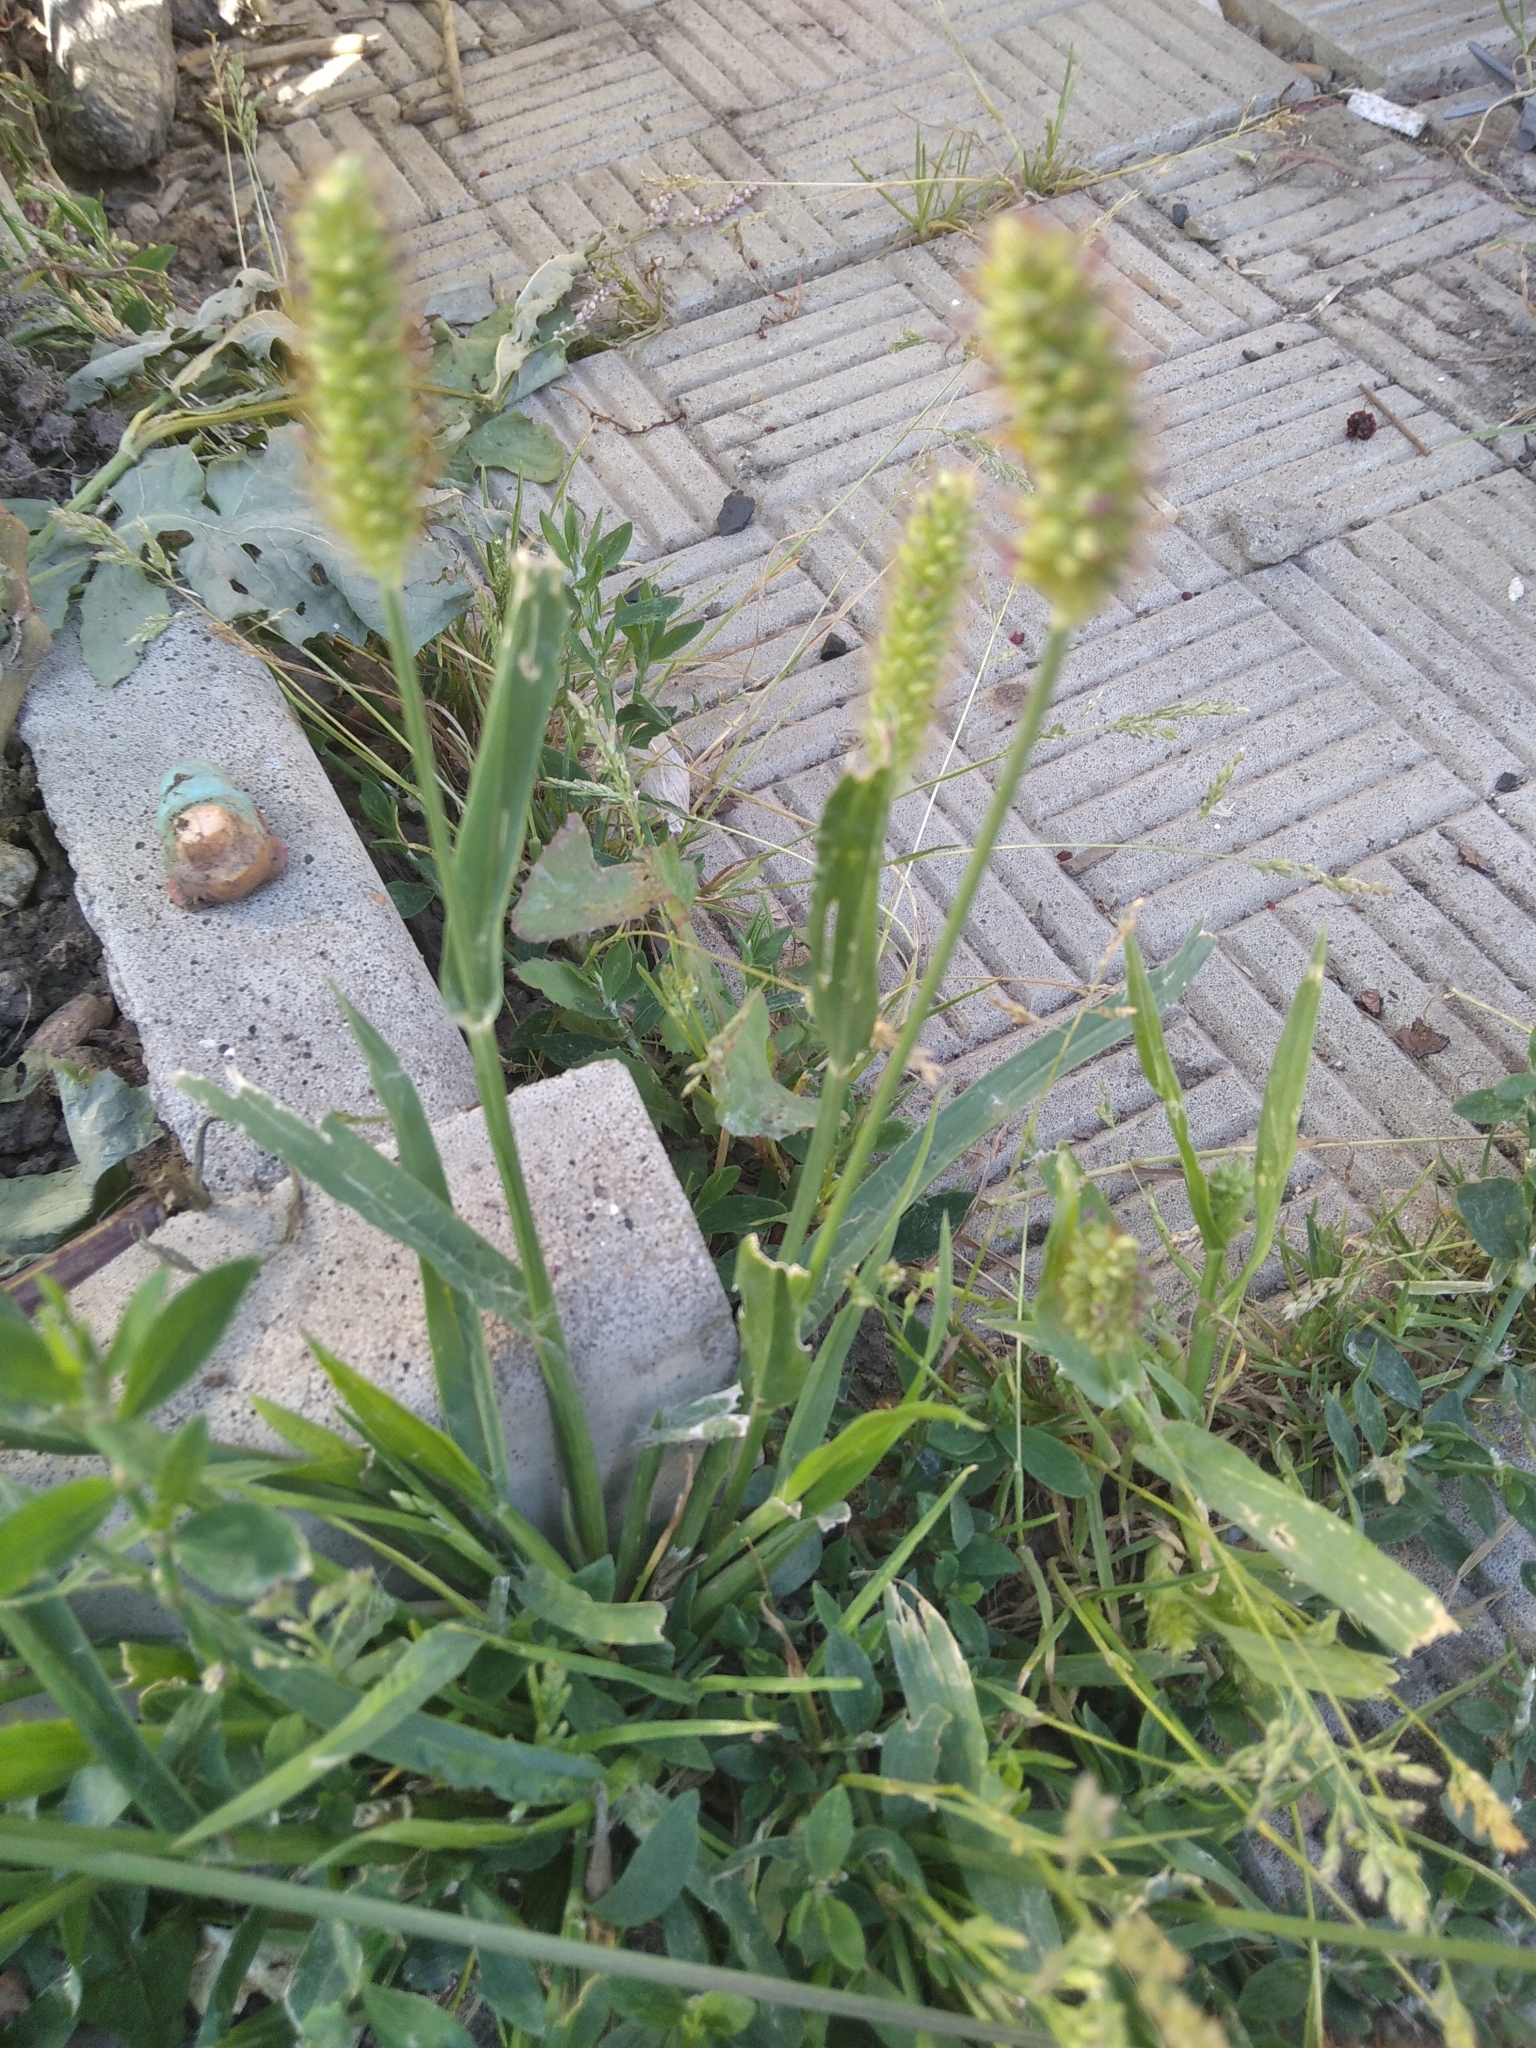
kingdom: Plantae
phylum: Tracheophyta
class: Liliopsida
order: Poales
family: Poaceae
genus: Setaria
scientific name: Setaria pumila
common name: Yellow bristle-grass
